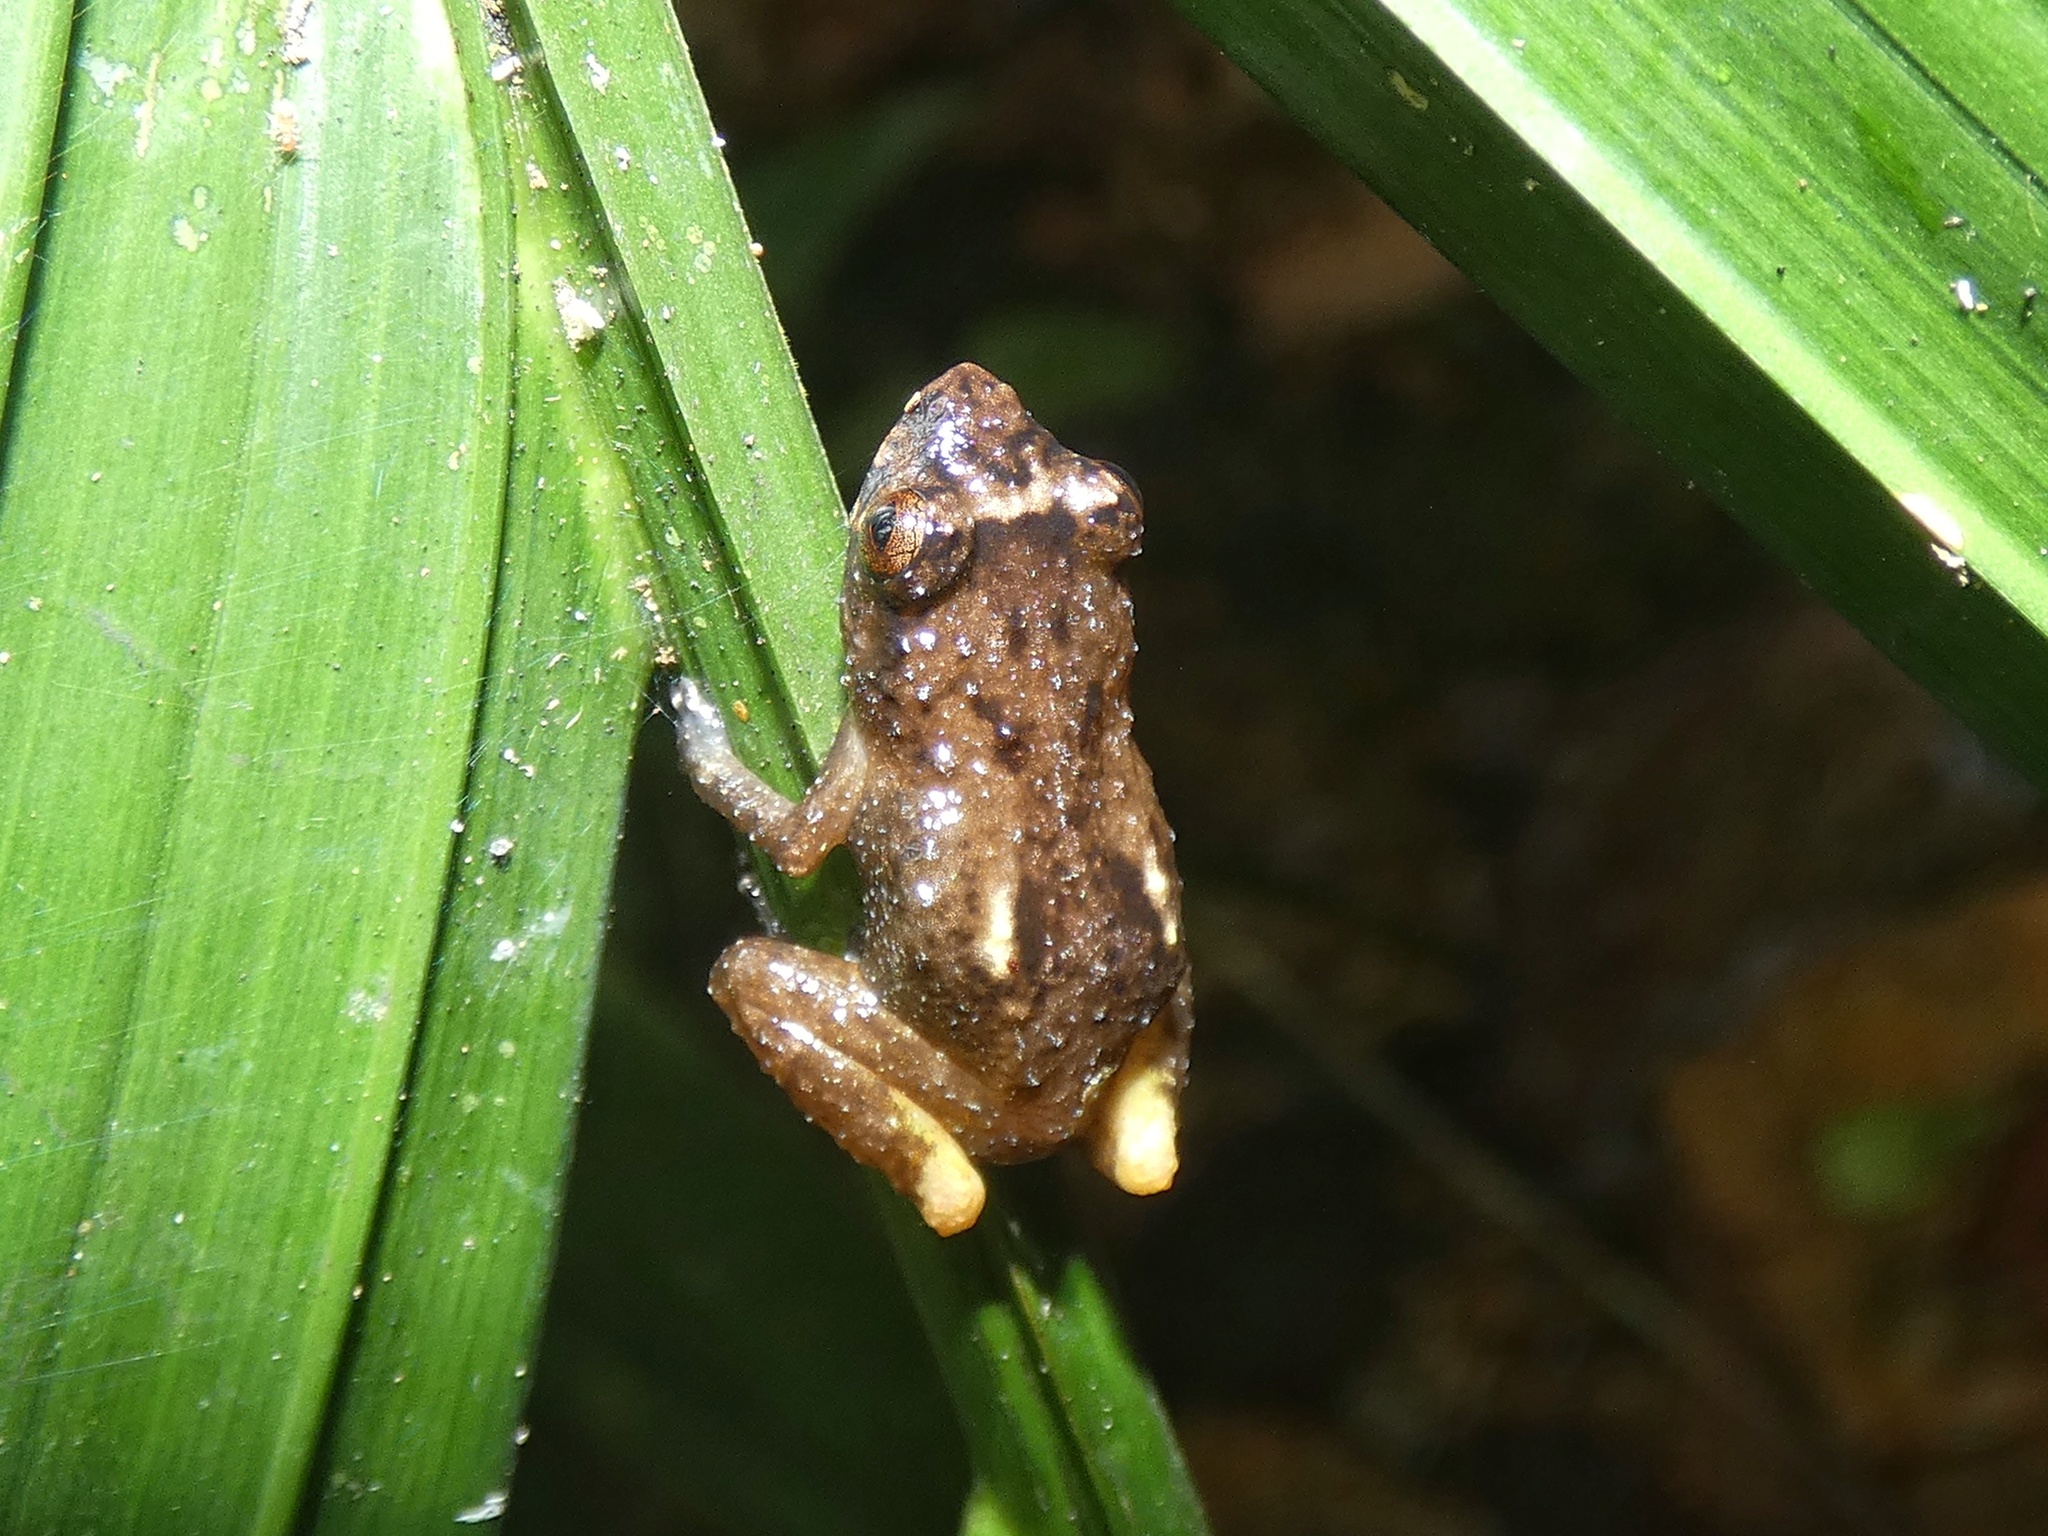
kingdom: Animalia
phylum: Chordata
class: Amphibia
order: Anura
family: Eleutherodactylidae
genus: Diasporus
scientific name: Diasporus diastema
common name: Caretta robber frog
